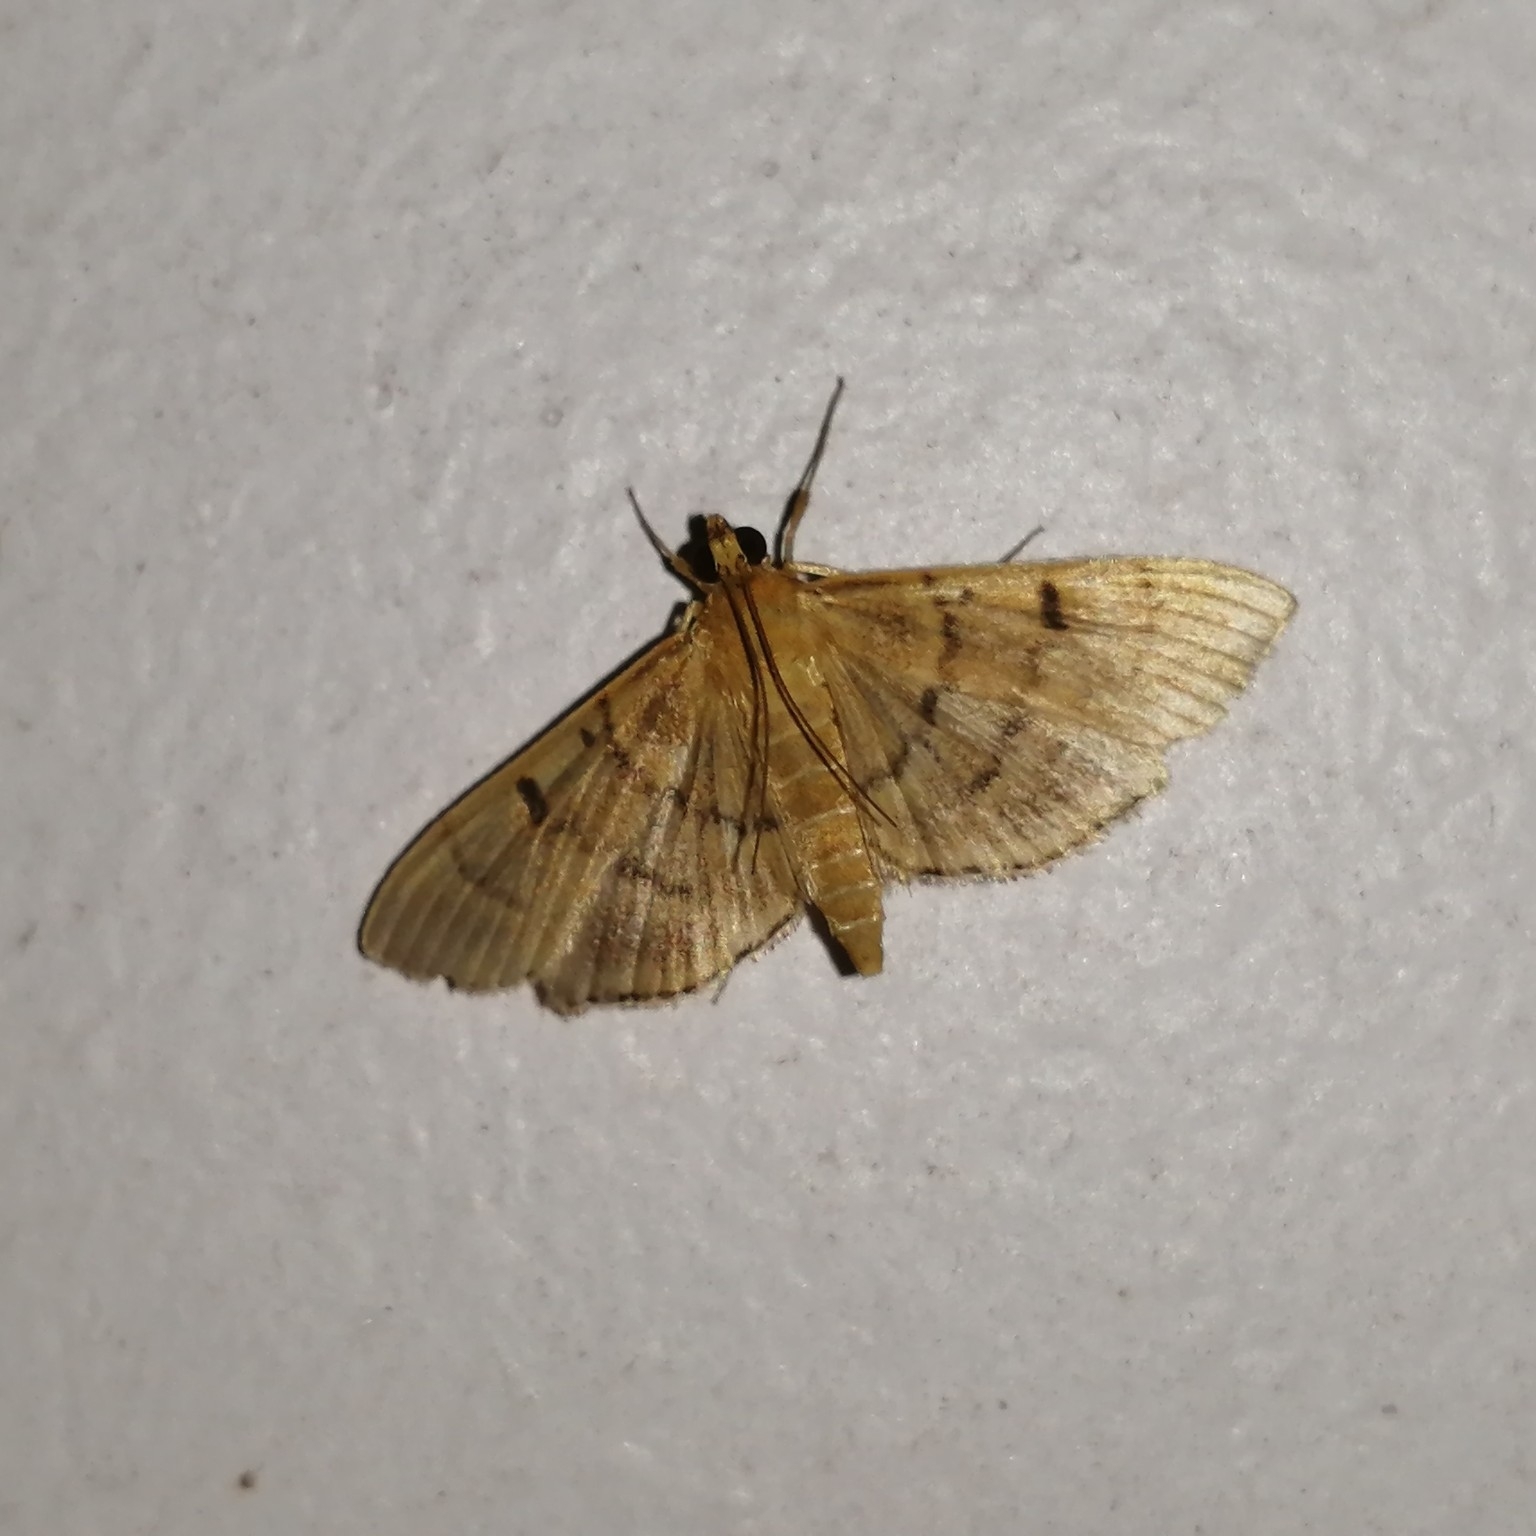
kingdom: Animalia
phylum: Arthropoda
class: Insecta
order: Lepidoptera
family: Crambidae
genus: Omiodes
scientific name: Omiodes indicata
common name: Bean-leaf webworm moth
